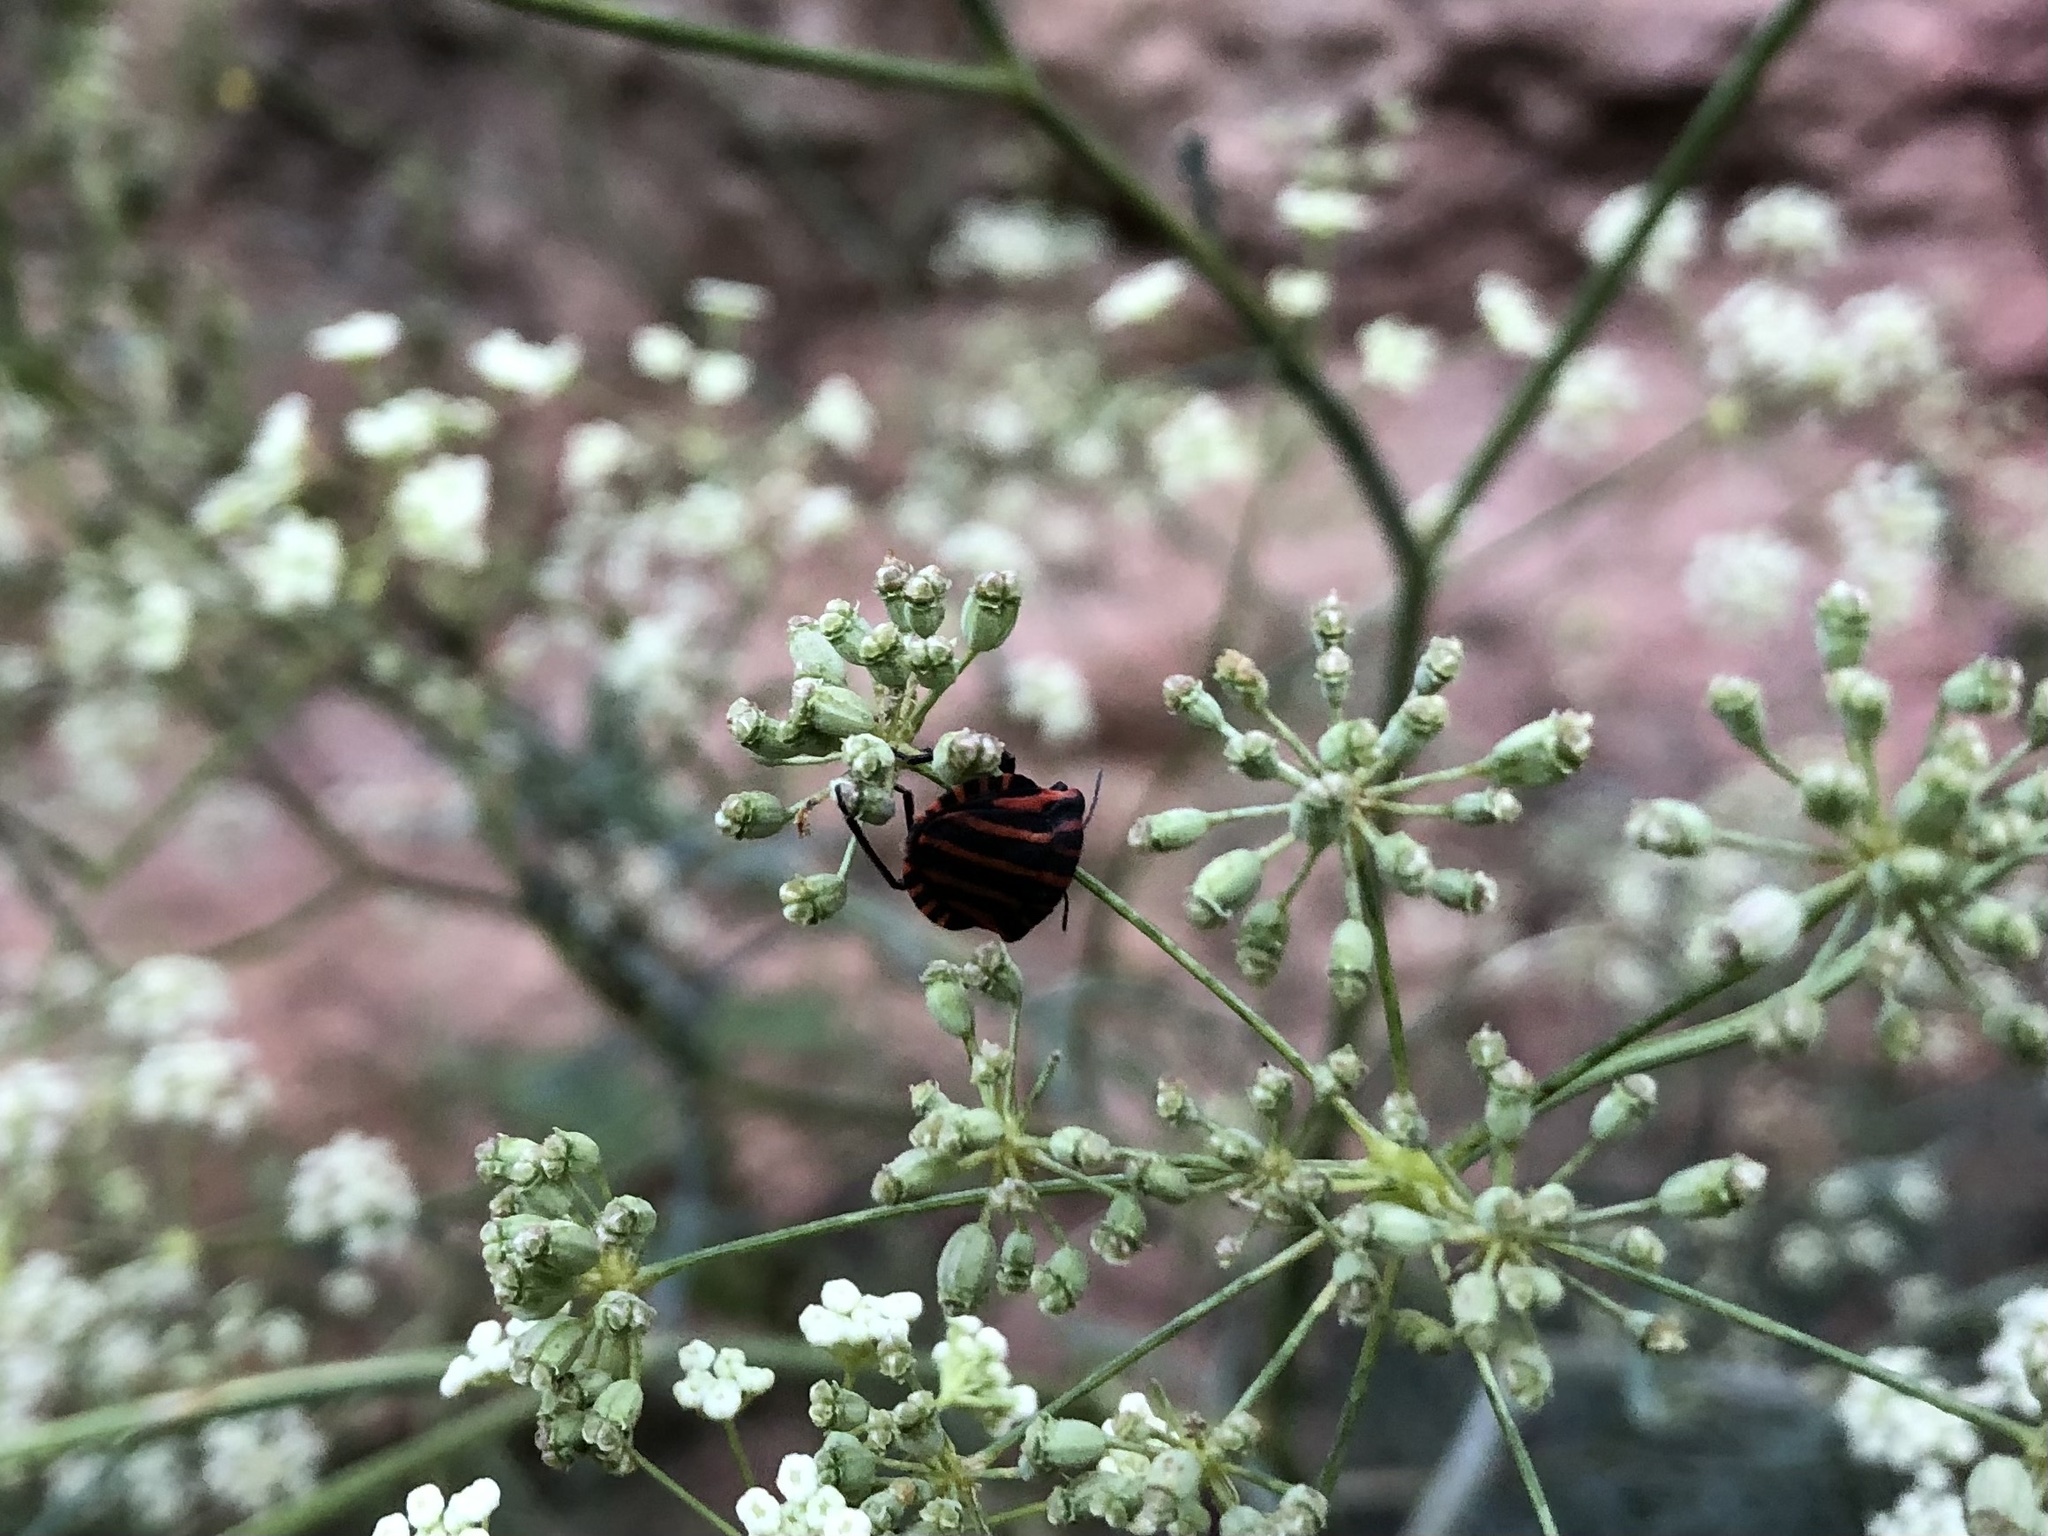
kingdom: Animalia
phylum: Arthropoda
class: Insecta
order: Hemiptera
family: Pentatomidae
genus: Graphosoma
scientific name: Graphosoma italicum
